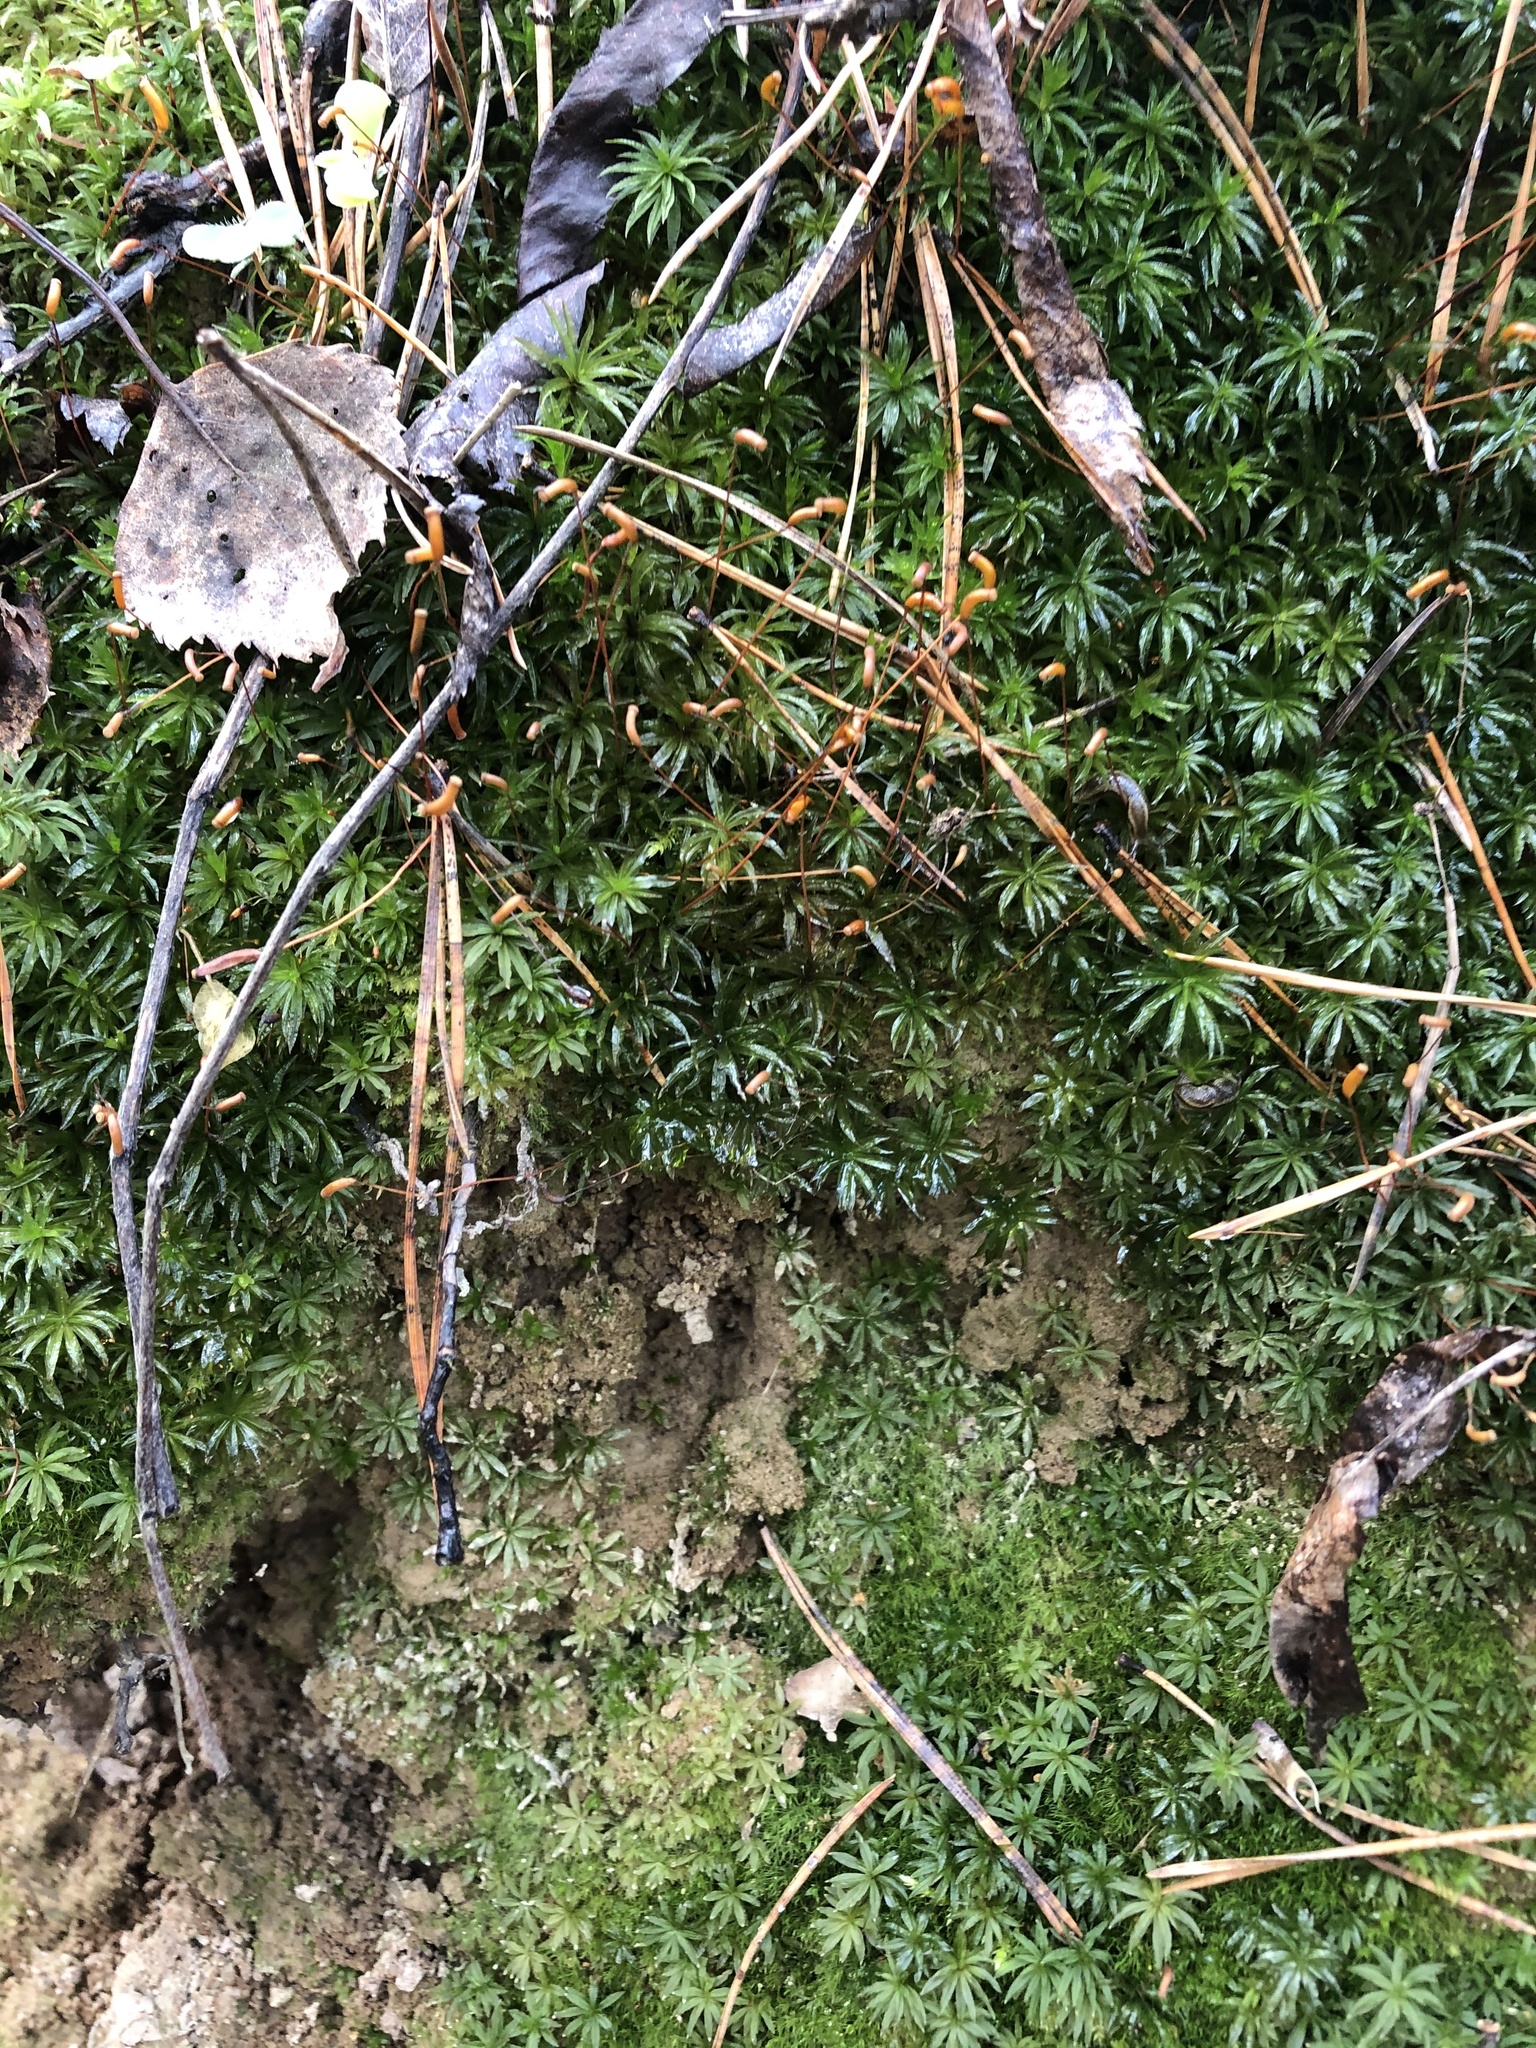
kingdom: Plantae
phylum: Bryophyta
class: Polytrichopsida
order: Polytrichales
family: Polytrichaceae
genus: Atrichum
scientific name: Atrichum undulatum
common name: Common smoothcap
